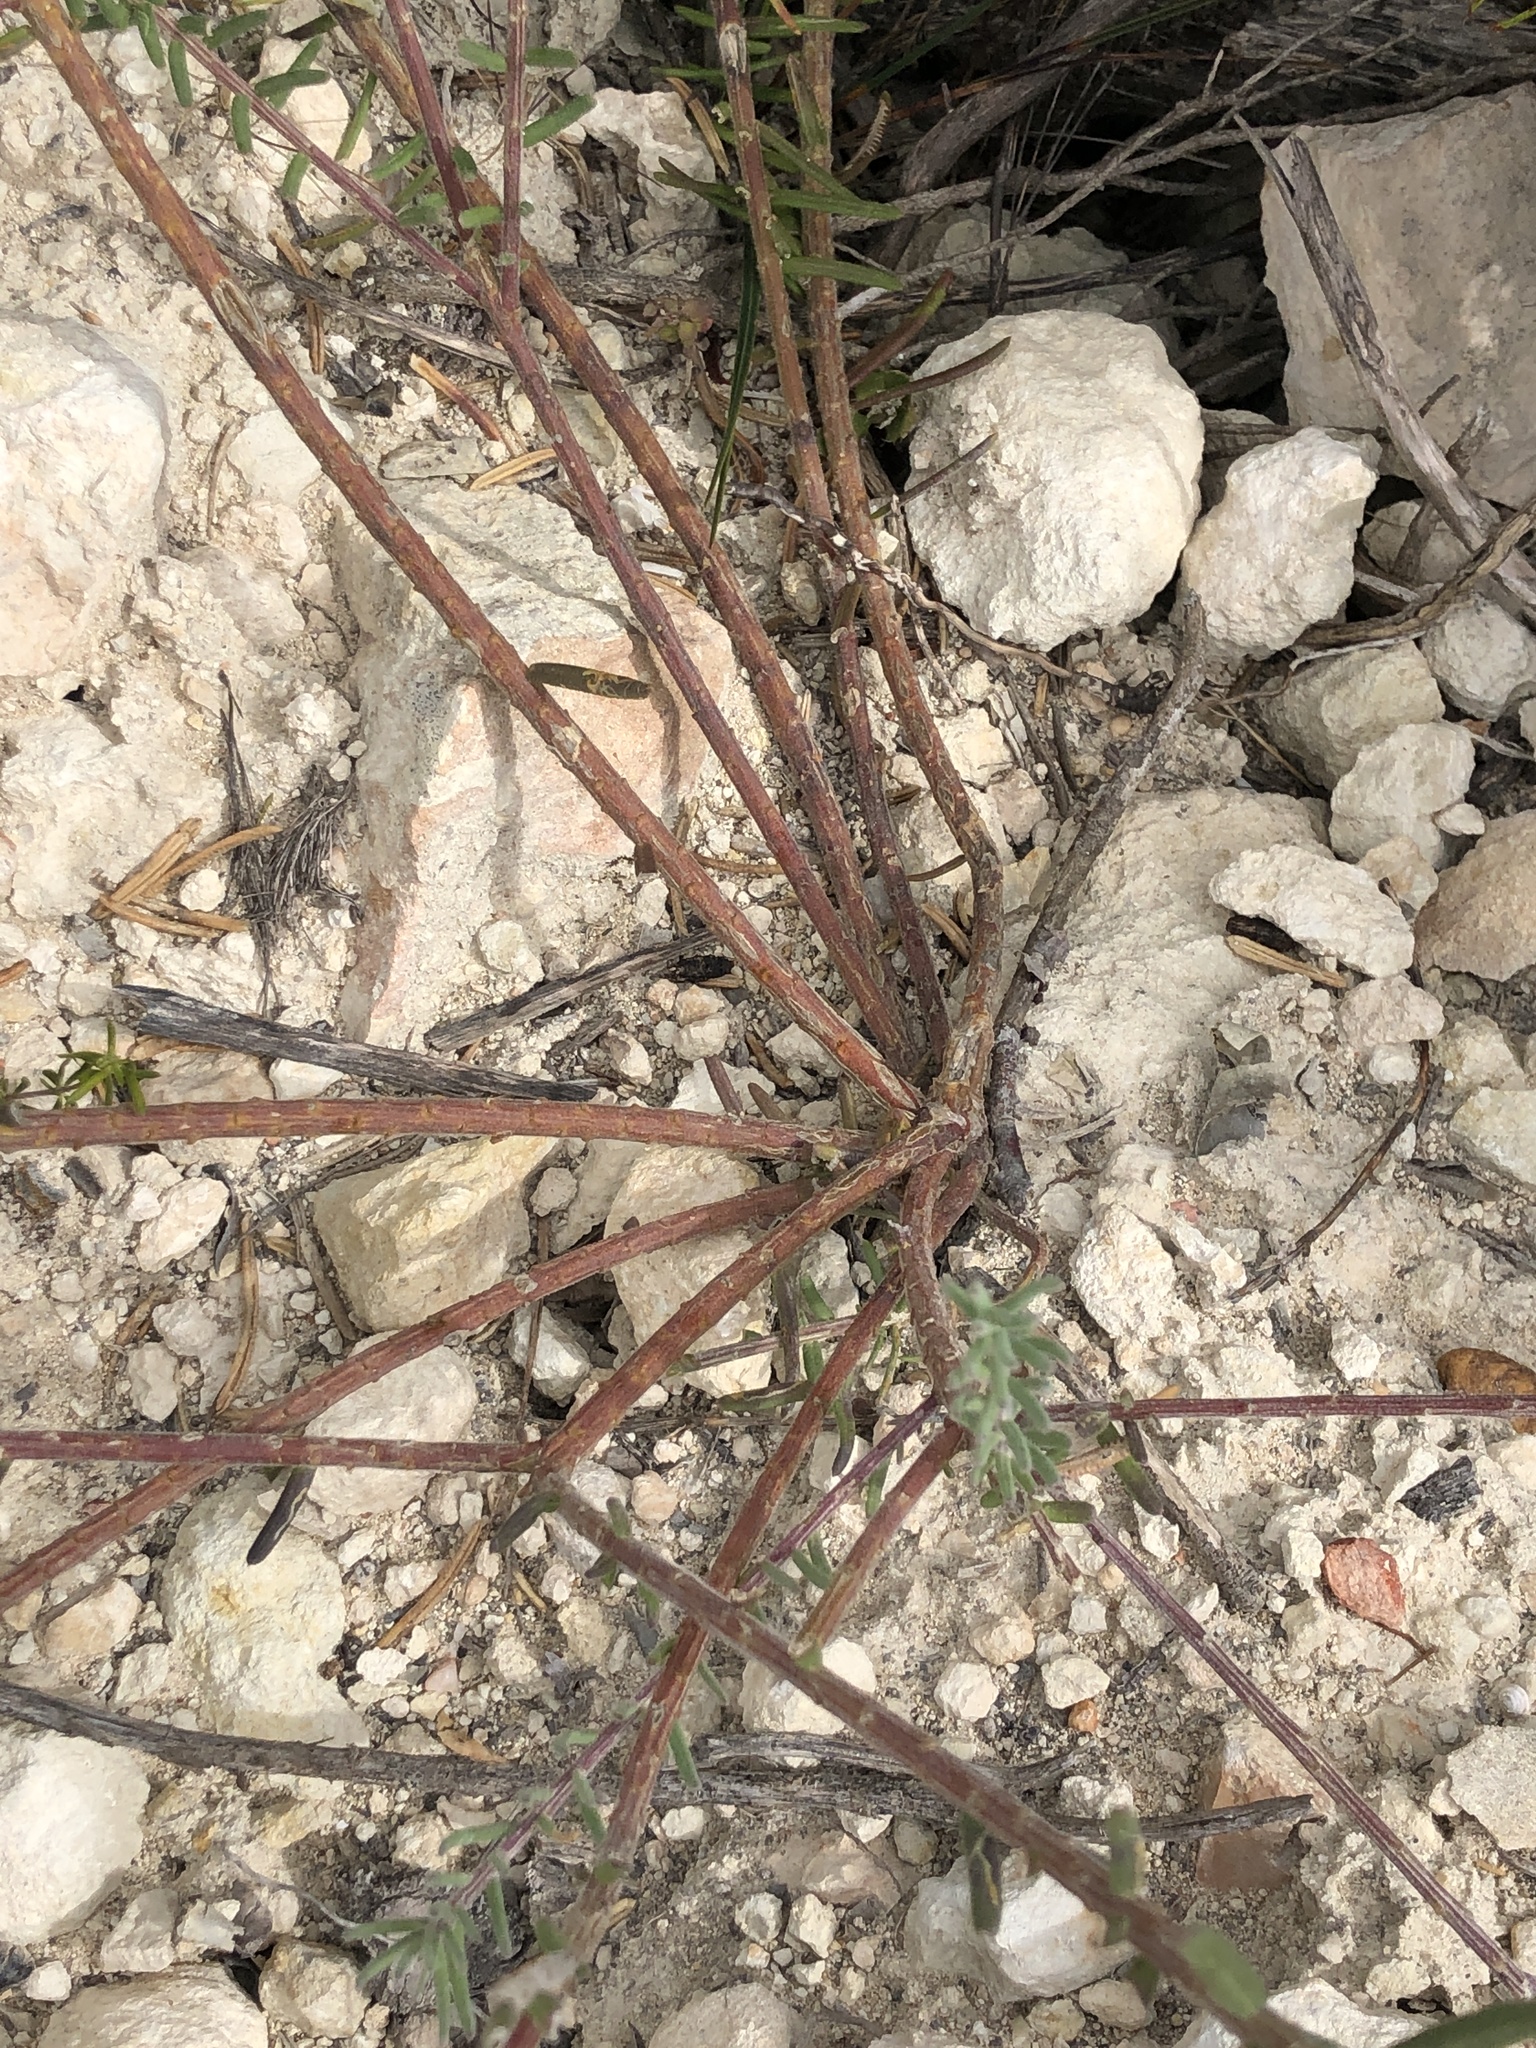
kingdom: Plantae
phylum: Tracheophyta
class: Magnoliopsida
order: Fabales
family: Polygalaceae
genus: Polygala
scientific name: Polygala peduncularis
